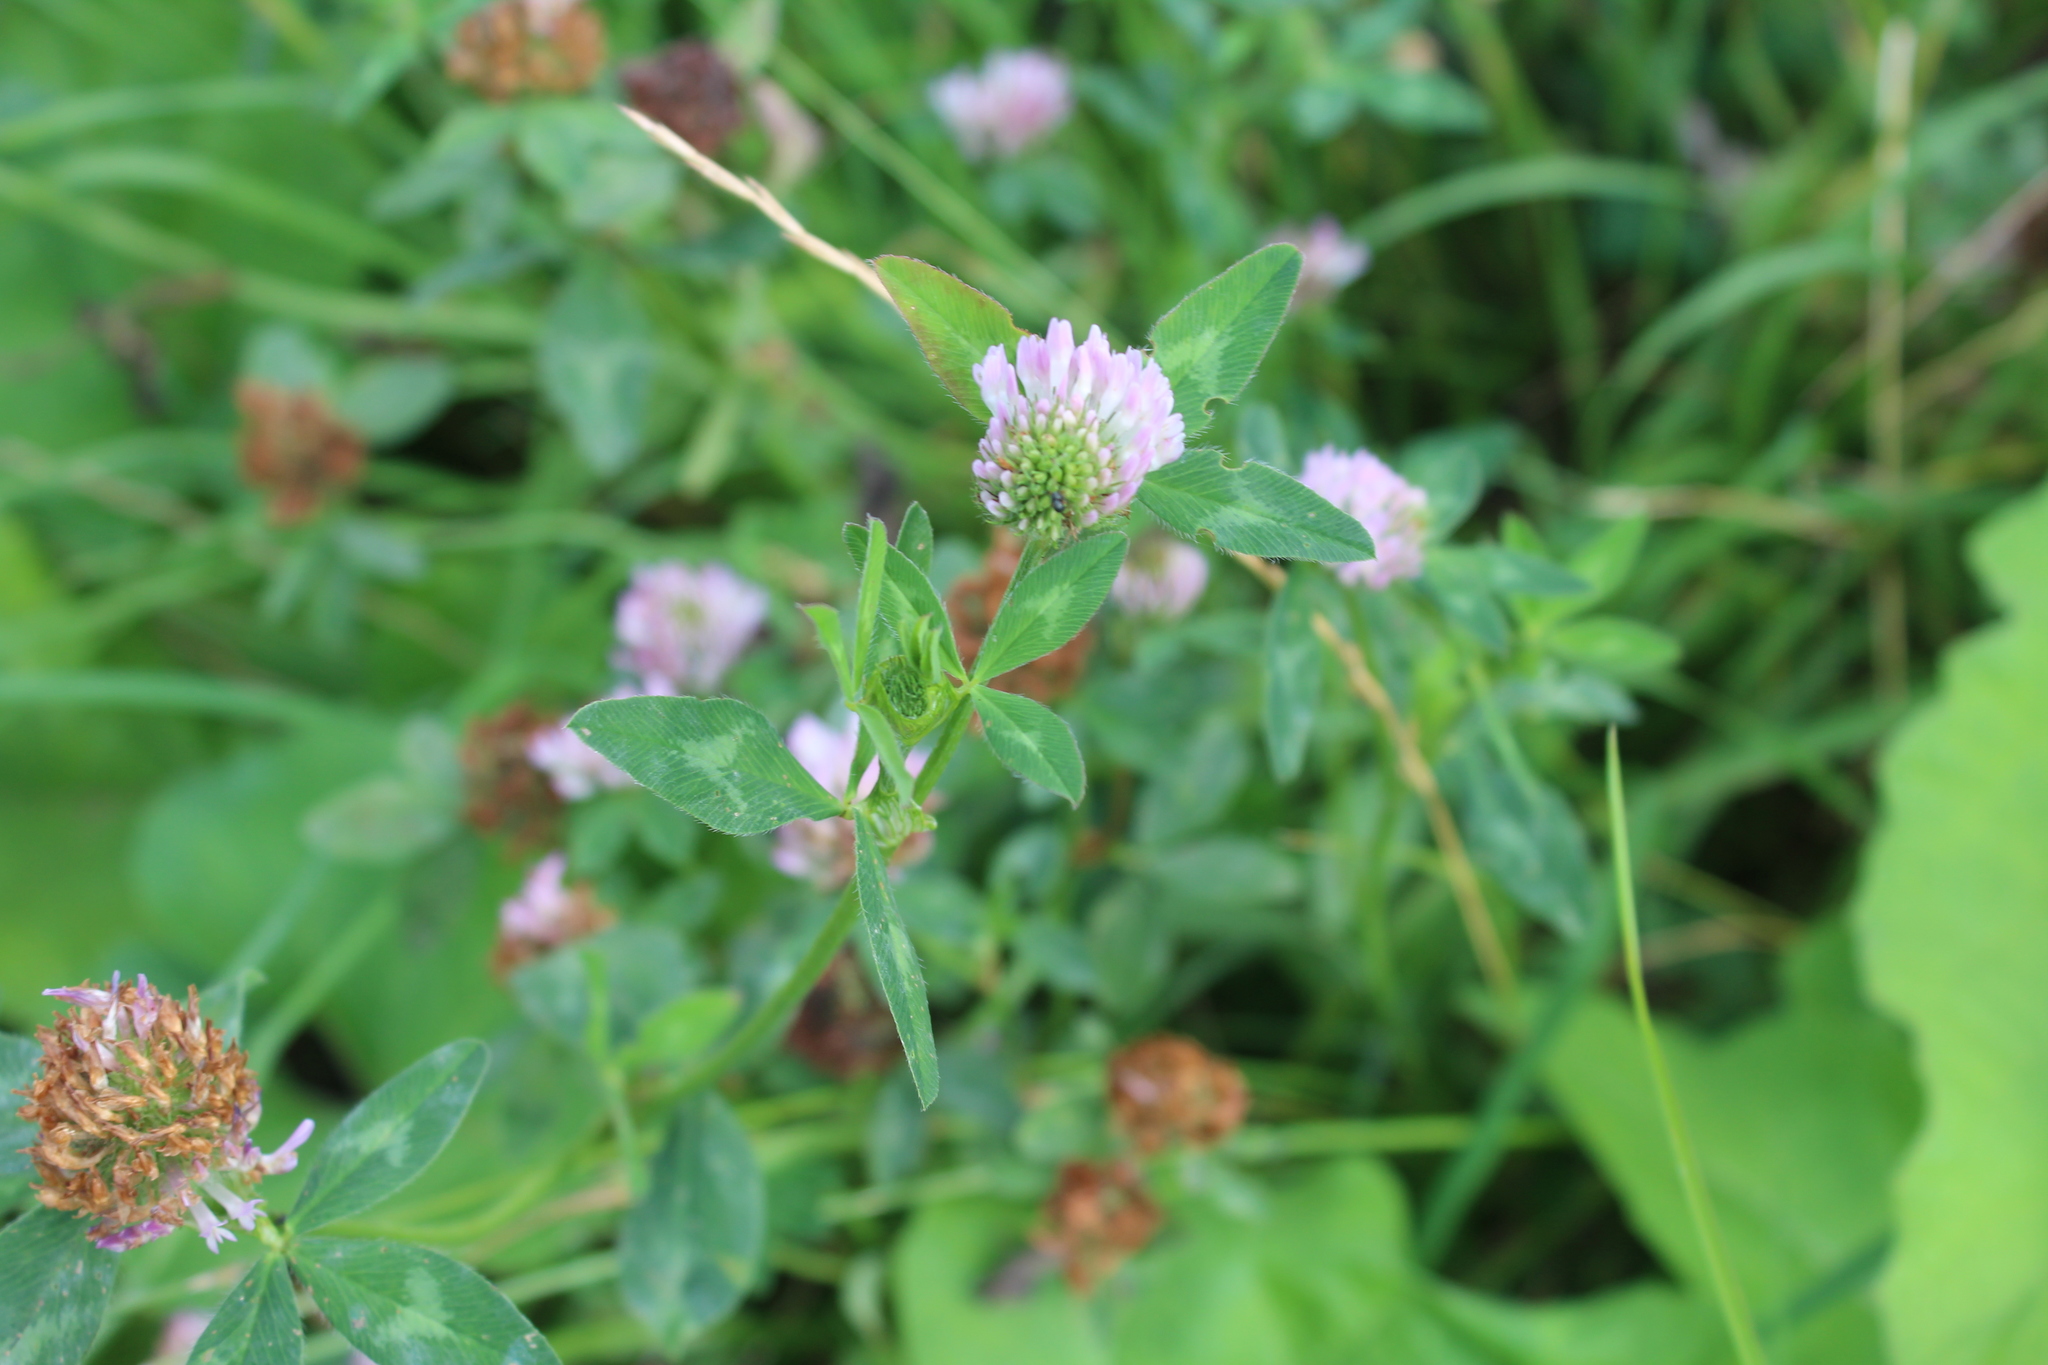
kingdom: Plantae
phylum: Tracheophyta
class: Magnoliopsida
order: Fabales
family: Fabaceae
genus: Trifolium
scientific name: Trifolium pratense
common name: Red clover
